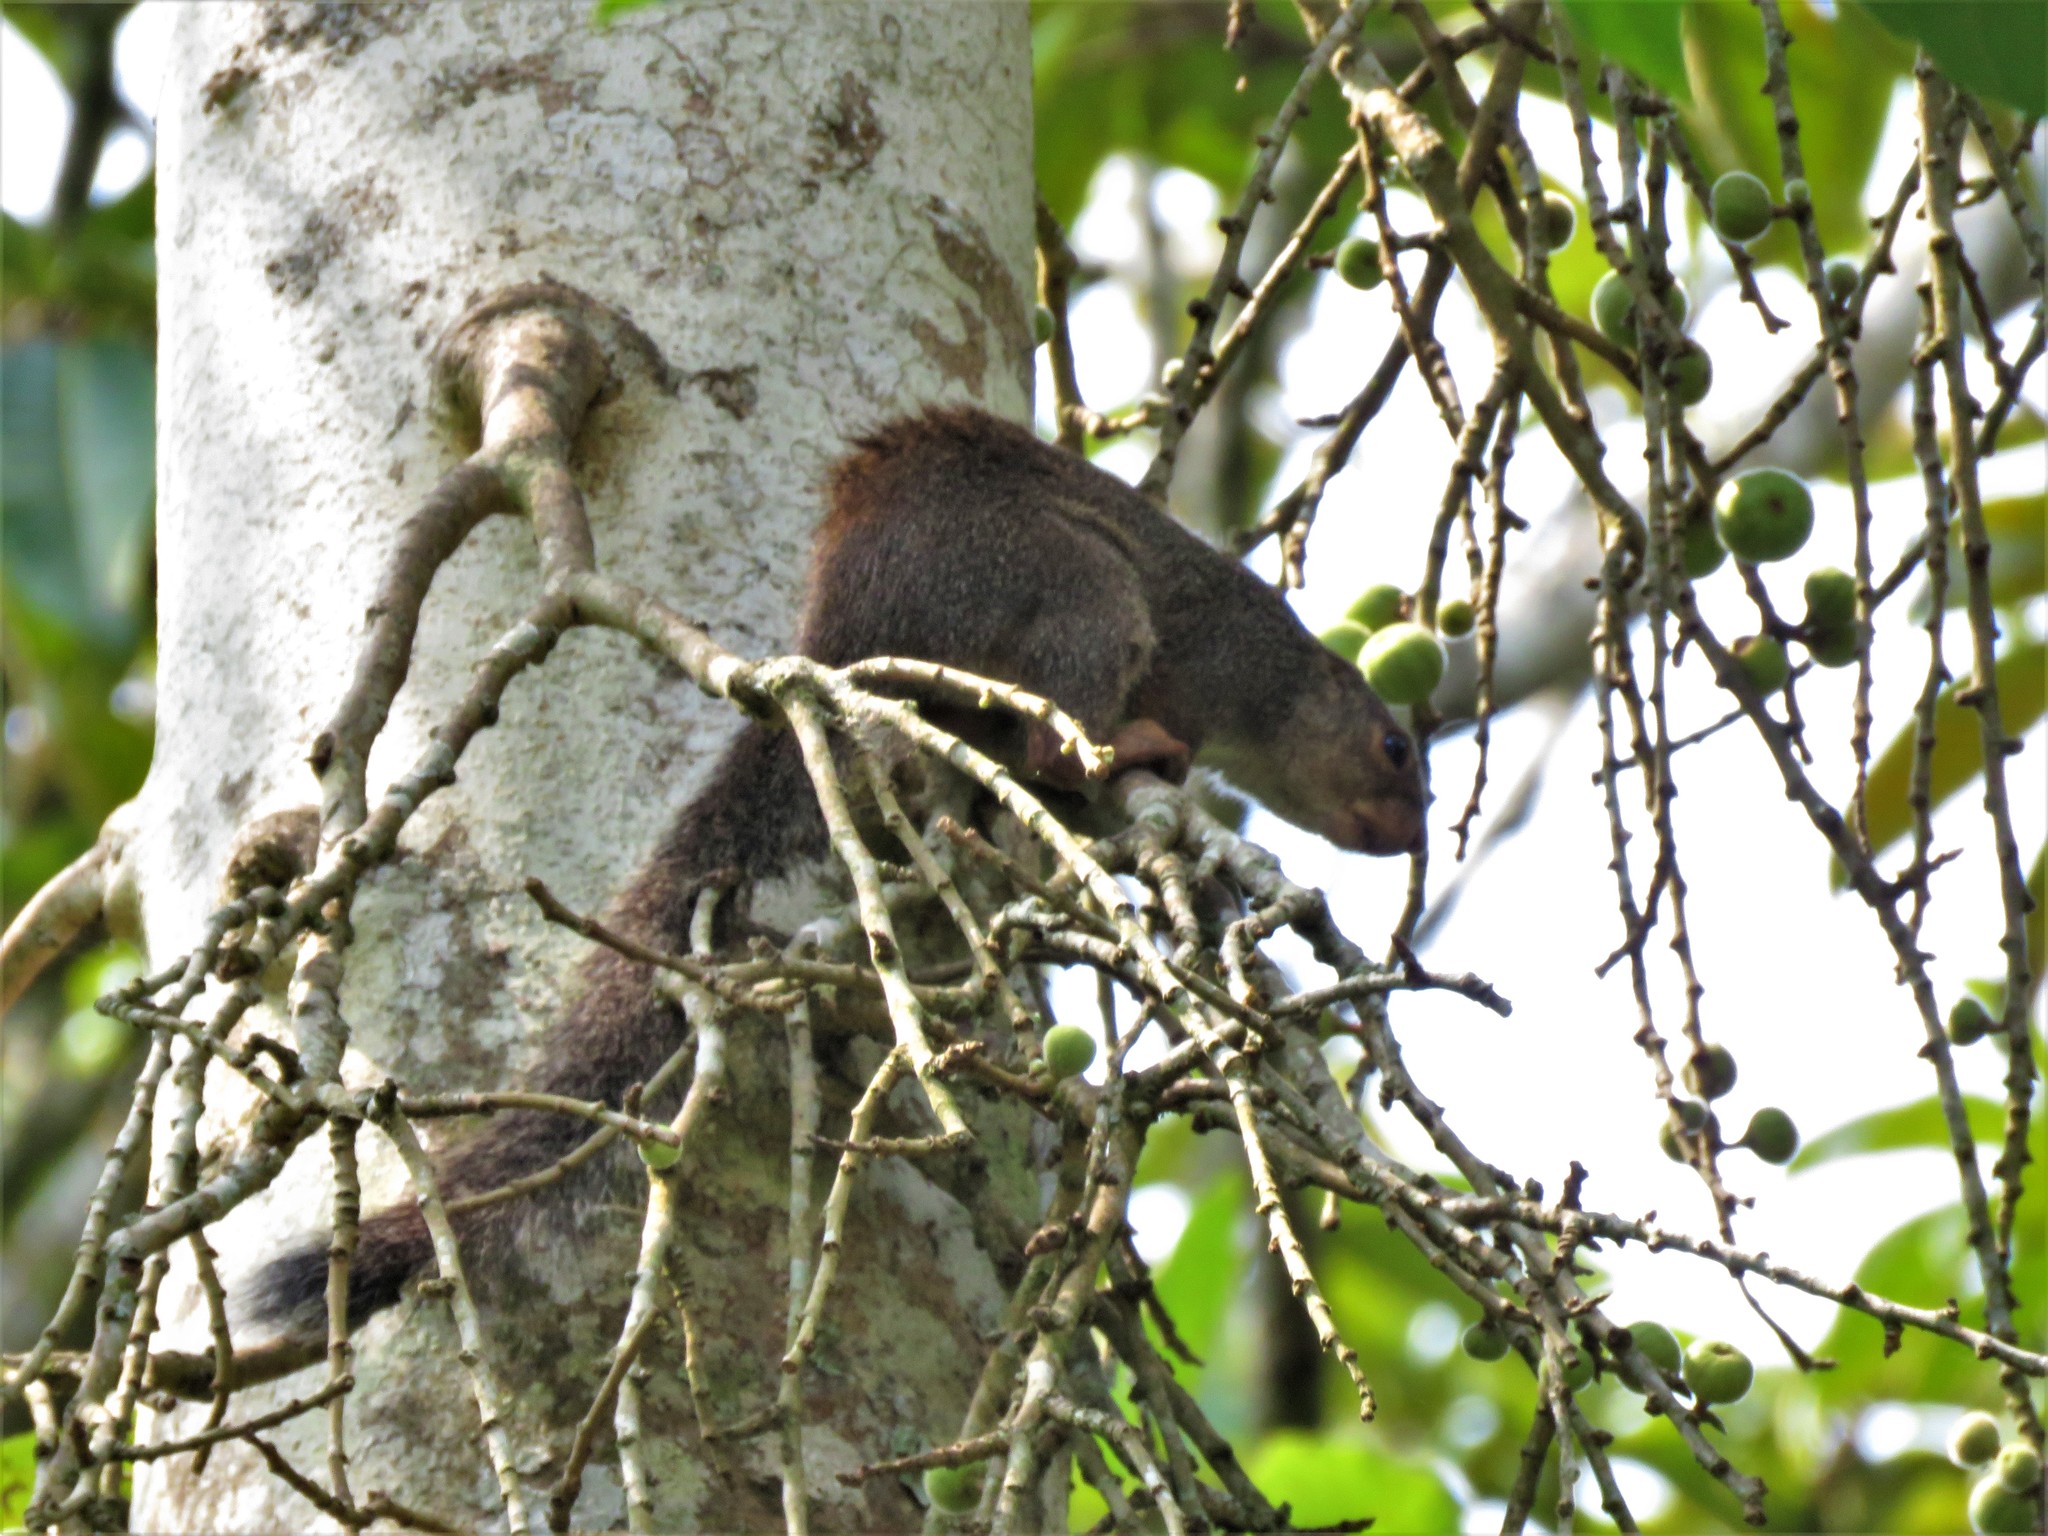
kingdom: Animalia
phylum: Chordata
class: Mammalia
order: Rodentia
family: Sciuridae
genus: Heliosciurus
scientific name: Heliosciurus rufobrachium
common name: Red-legged sun squirrel
